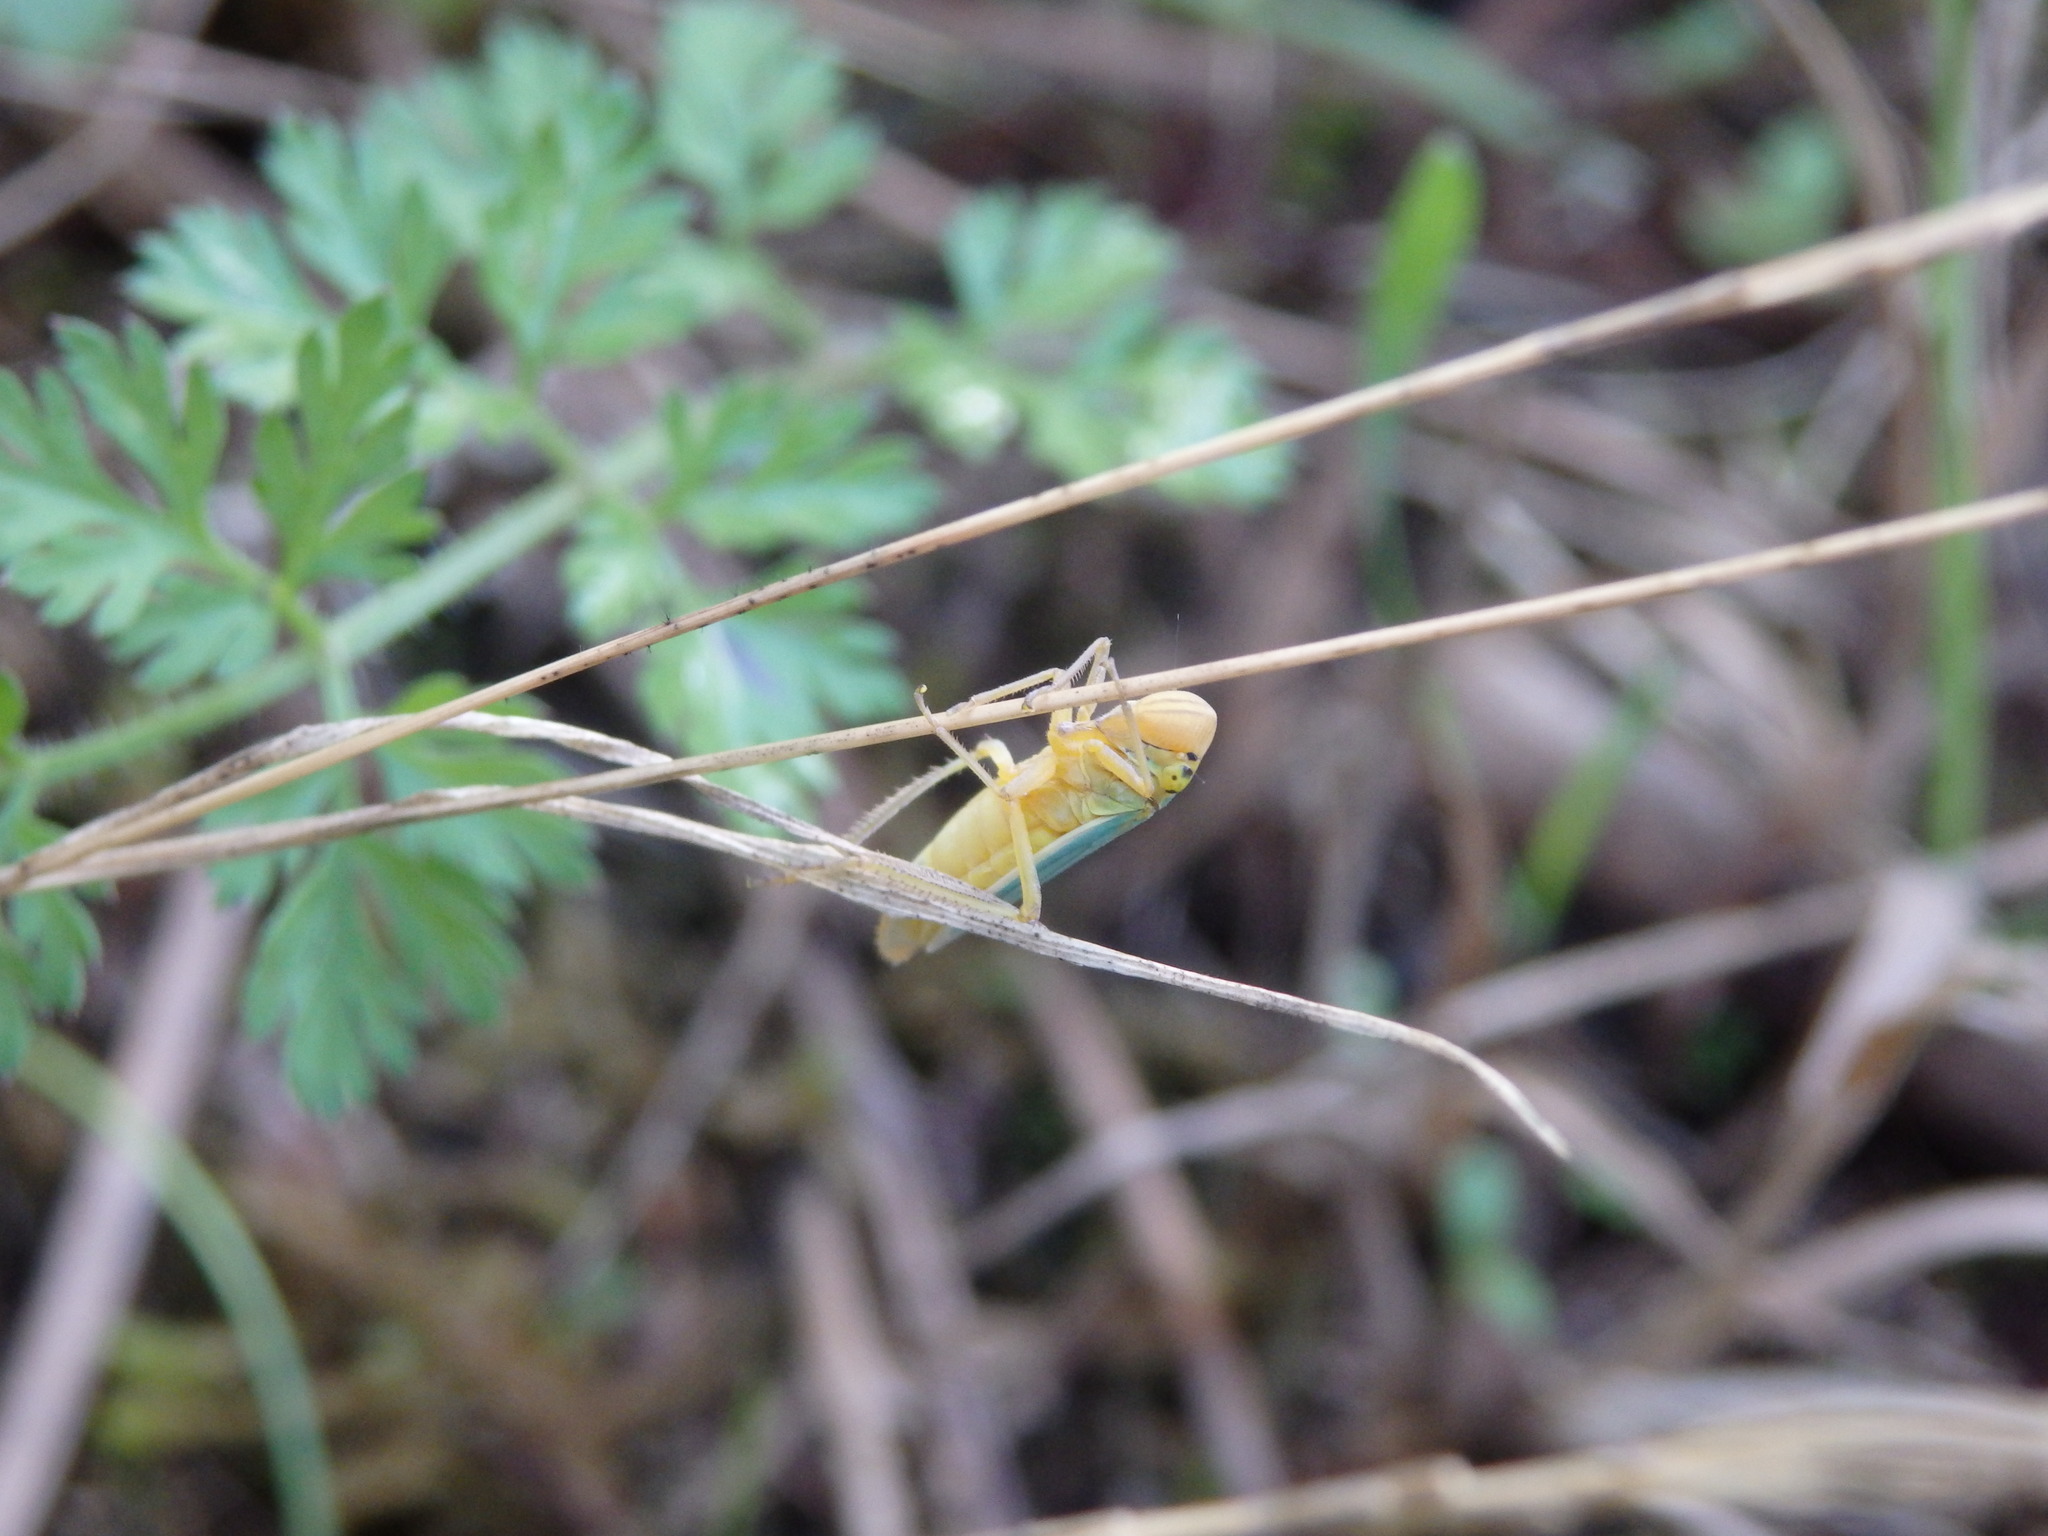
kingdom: Animalia
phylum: Arthropoda
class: Insecta
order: Hemiptera
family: Cicadellidae
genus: Cicadella
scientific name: Cicadella viridis
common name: Leafhopper
